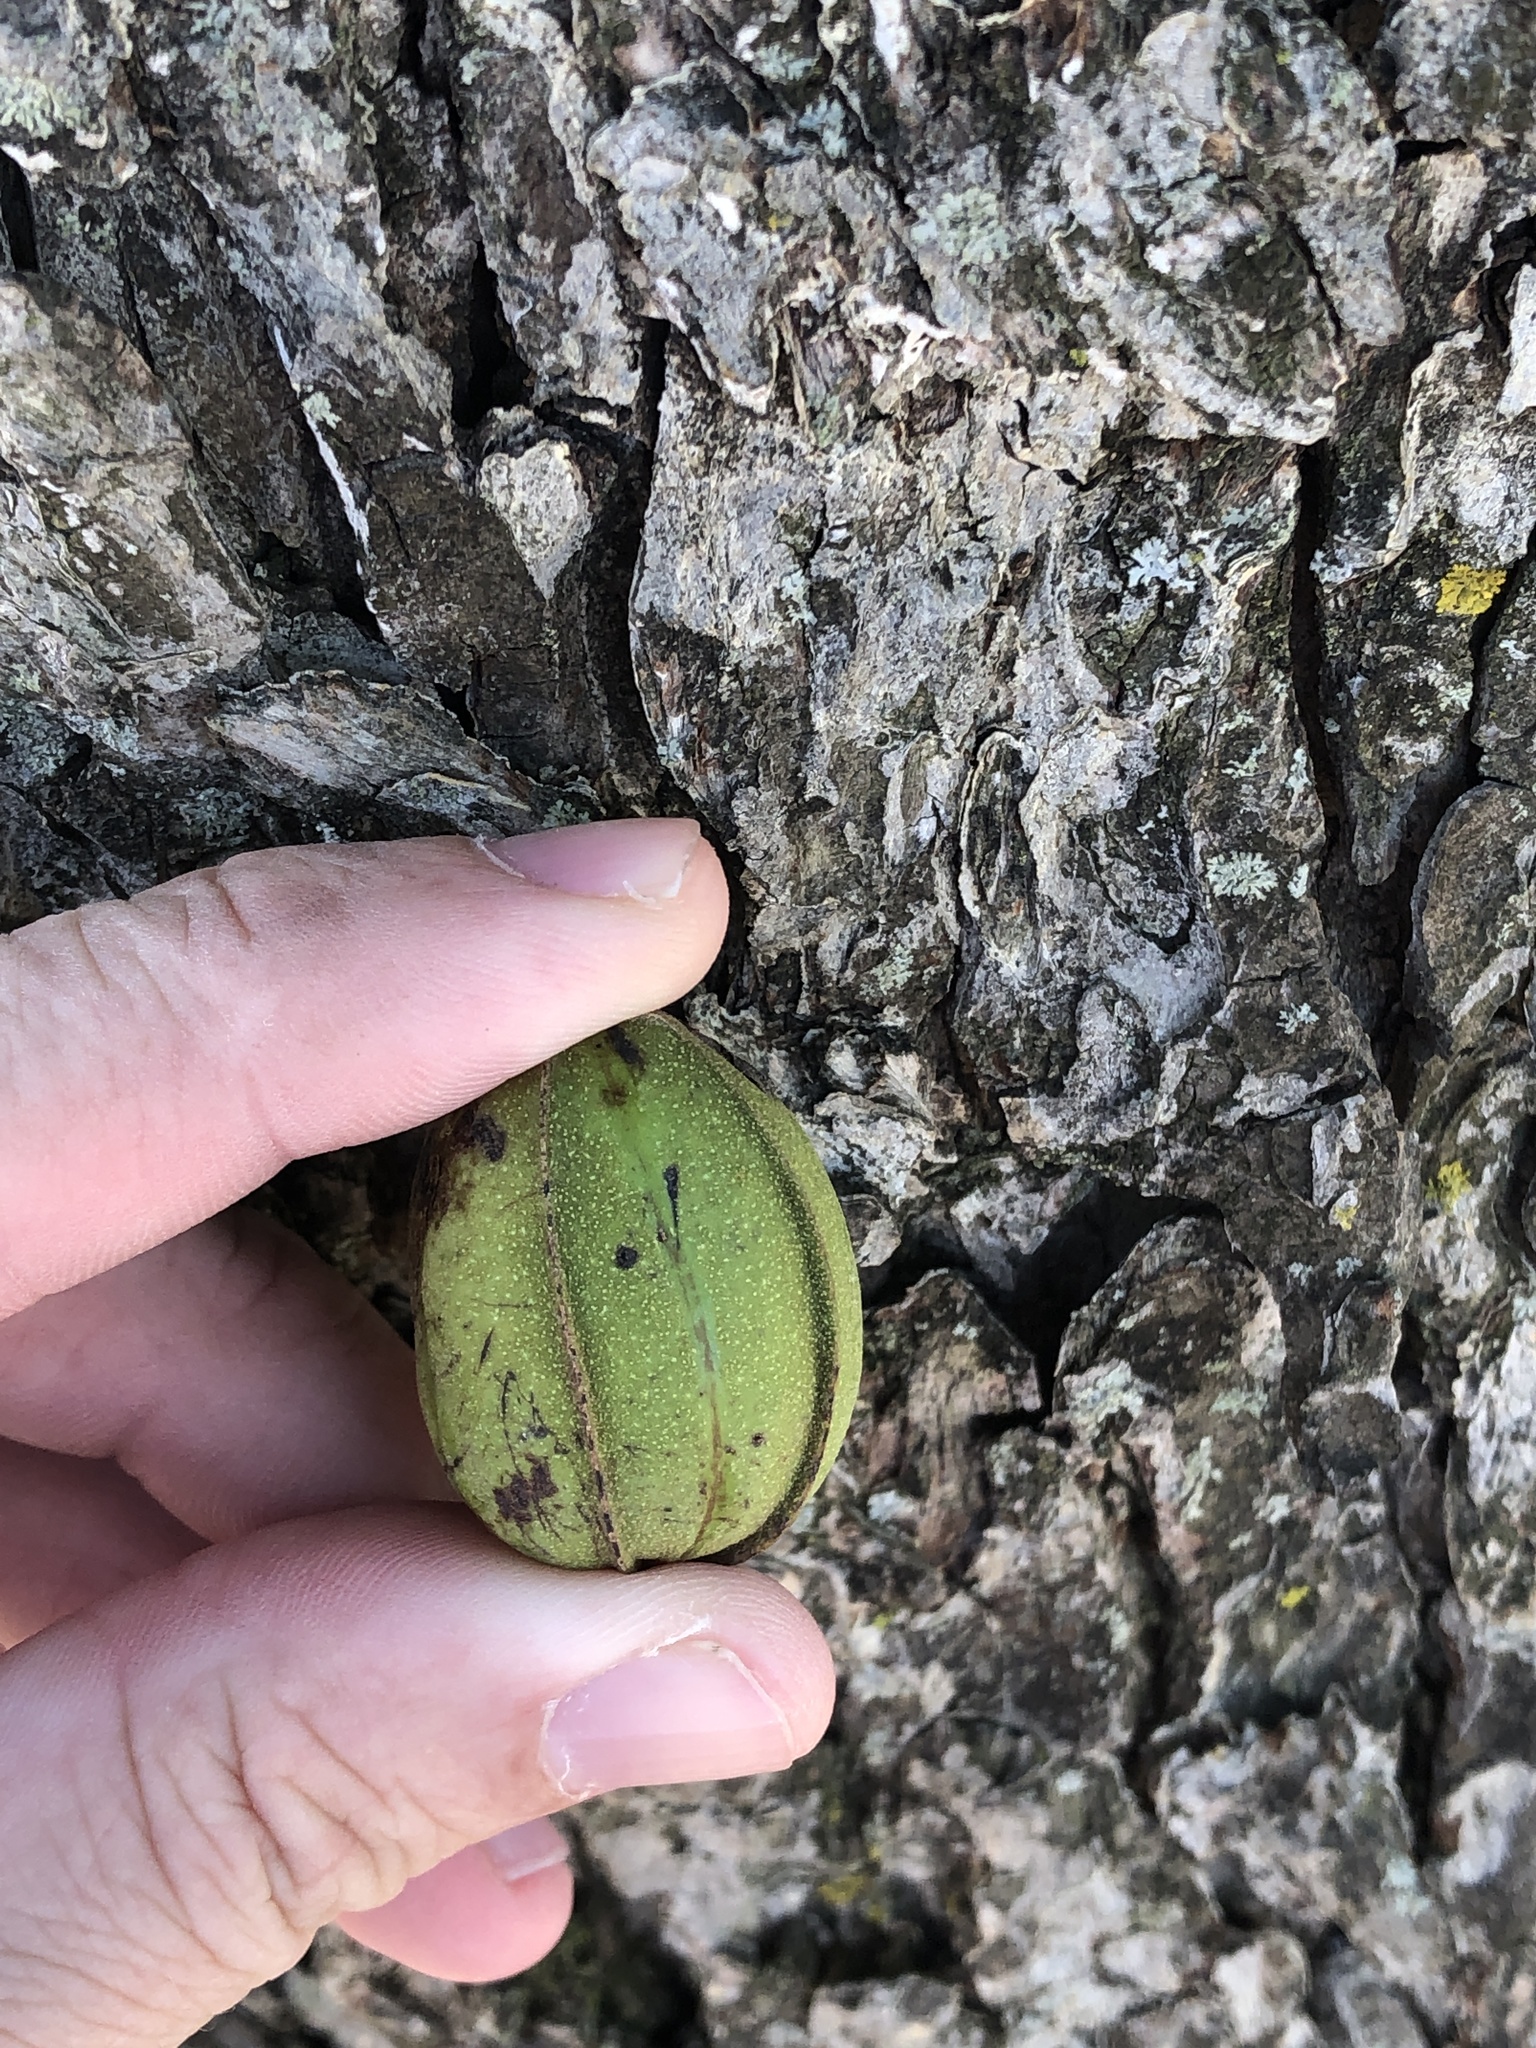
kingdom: Plantae
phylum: Tracheophyta
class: Magnoliopsida
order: Fagales
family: Juglandaceae
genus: Carya
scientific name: Carya illinoinensis
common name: Pecan
